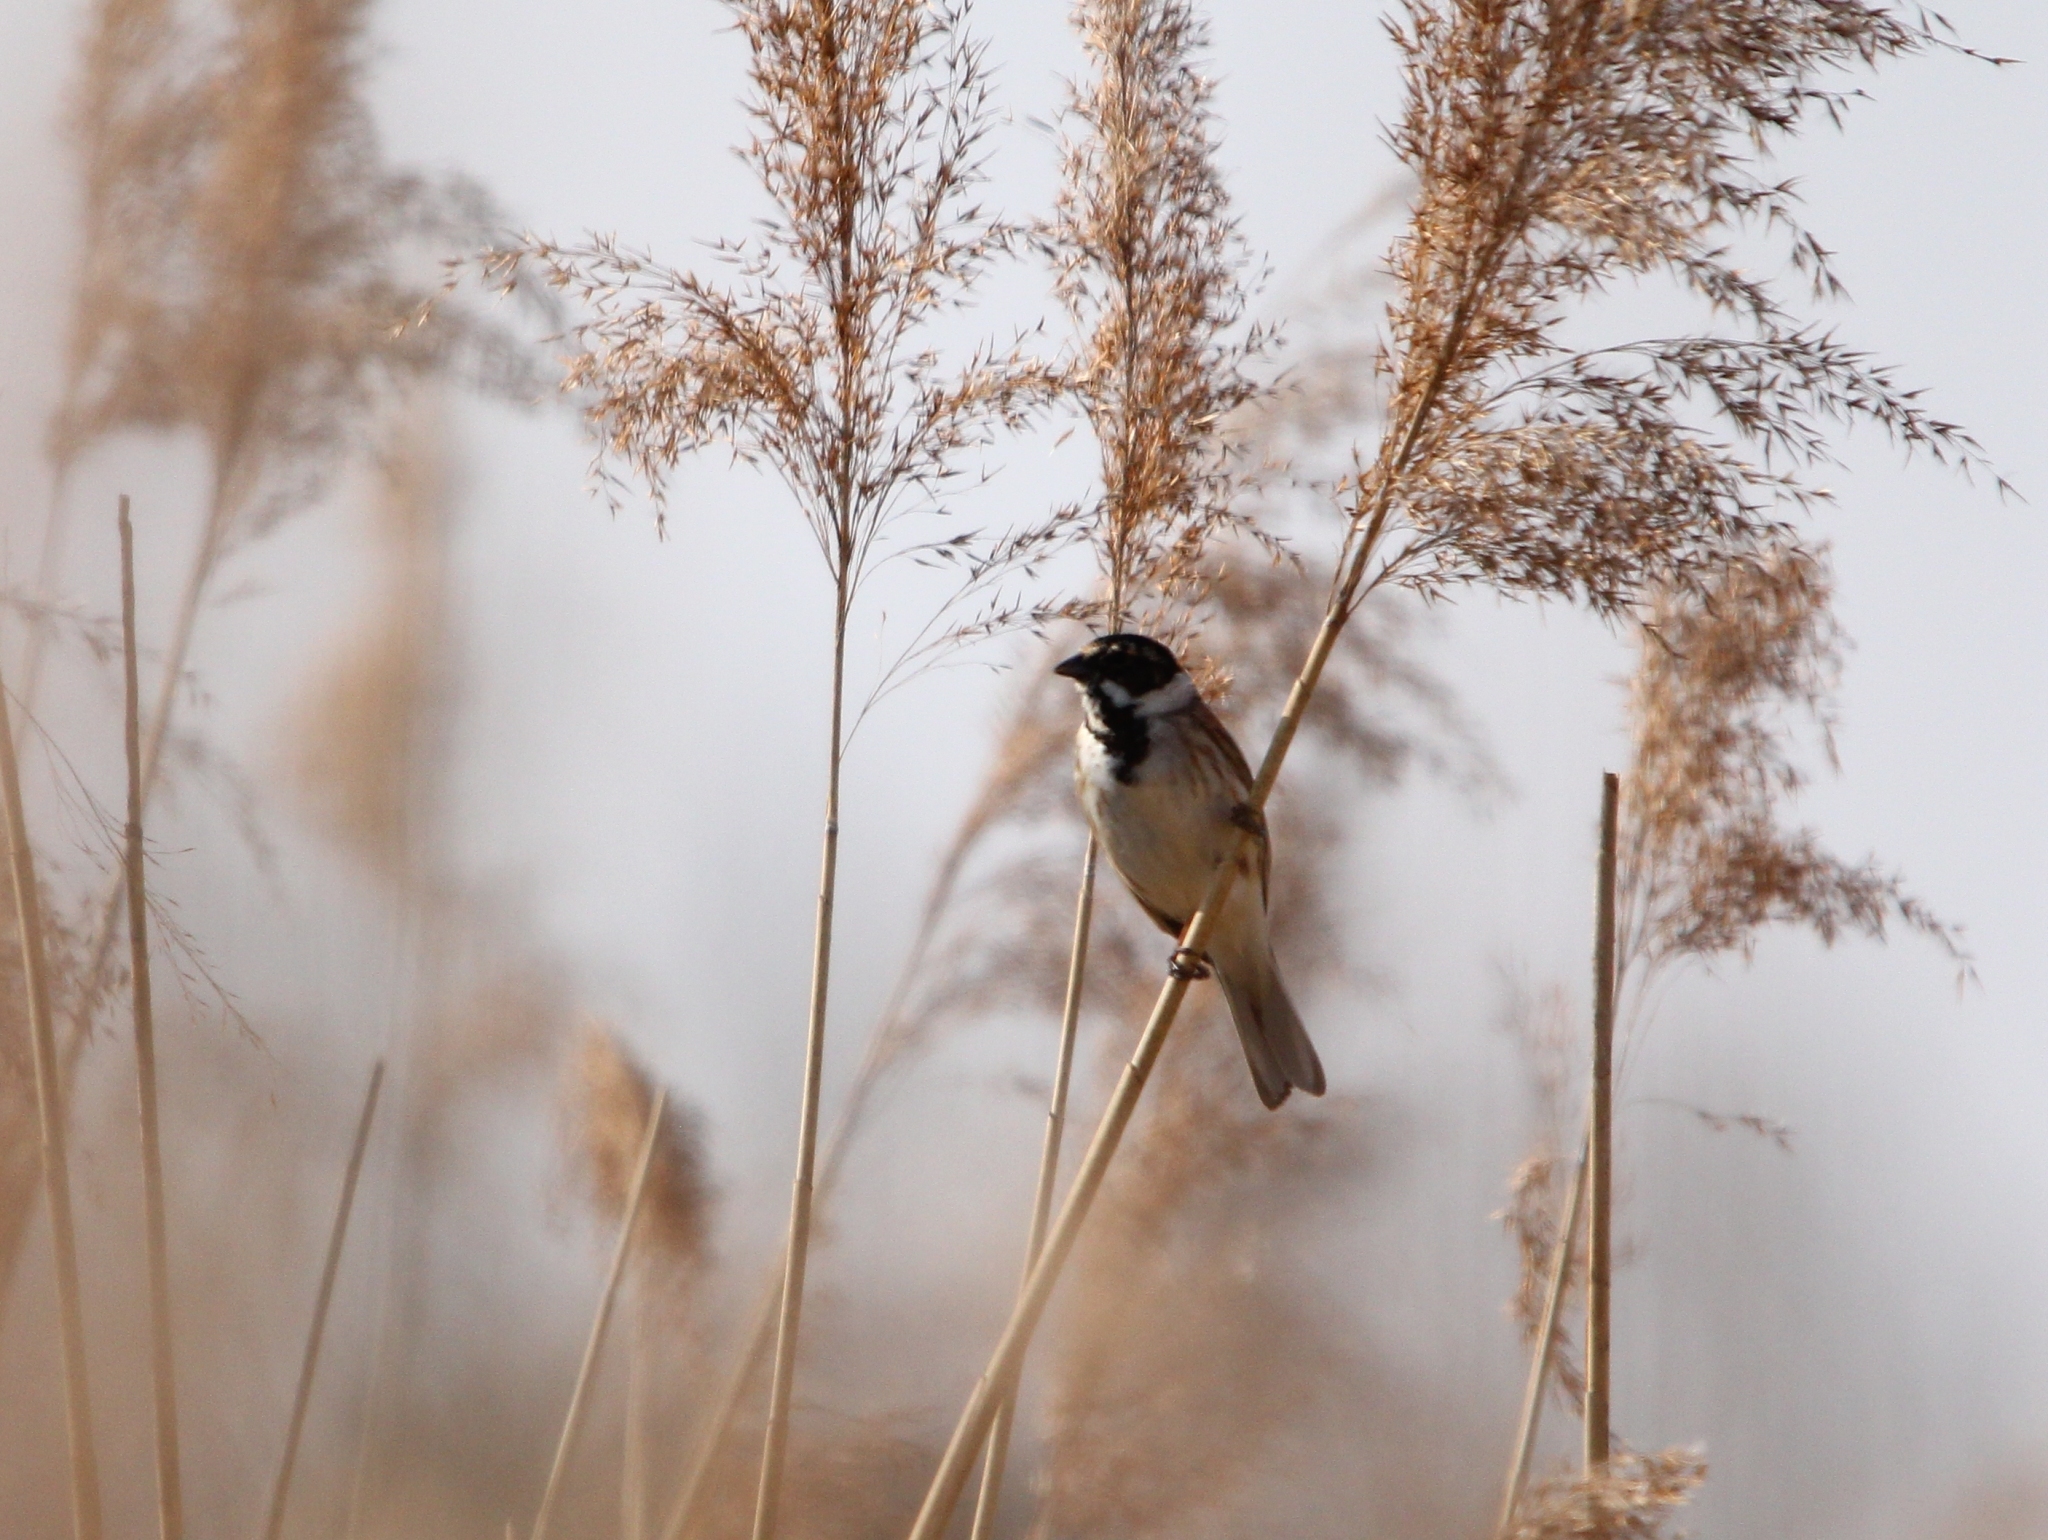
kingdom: Animalia
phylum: Chordata
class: Aves
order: Passeriformes
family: Emberizidae
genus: Emberiza
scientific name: Emberiza schoeniclus
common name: Reed bunting
